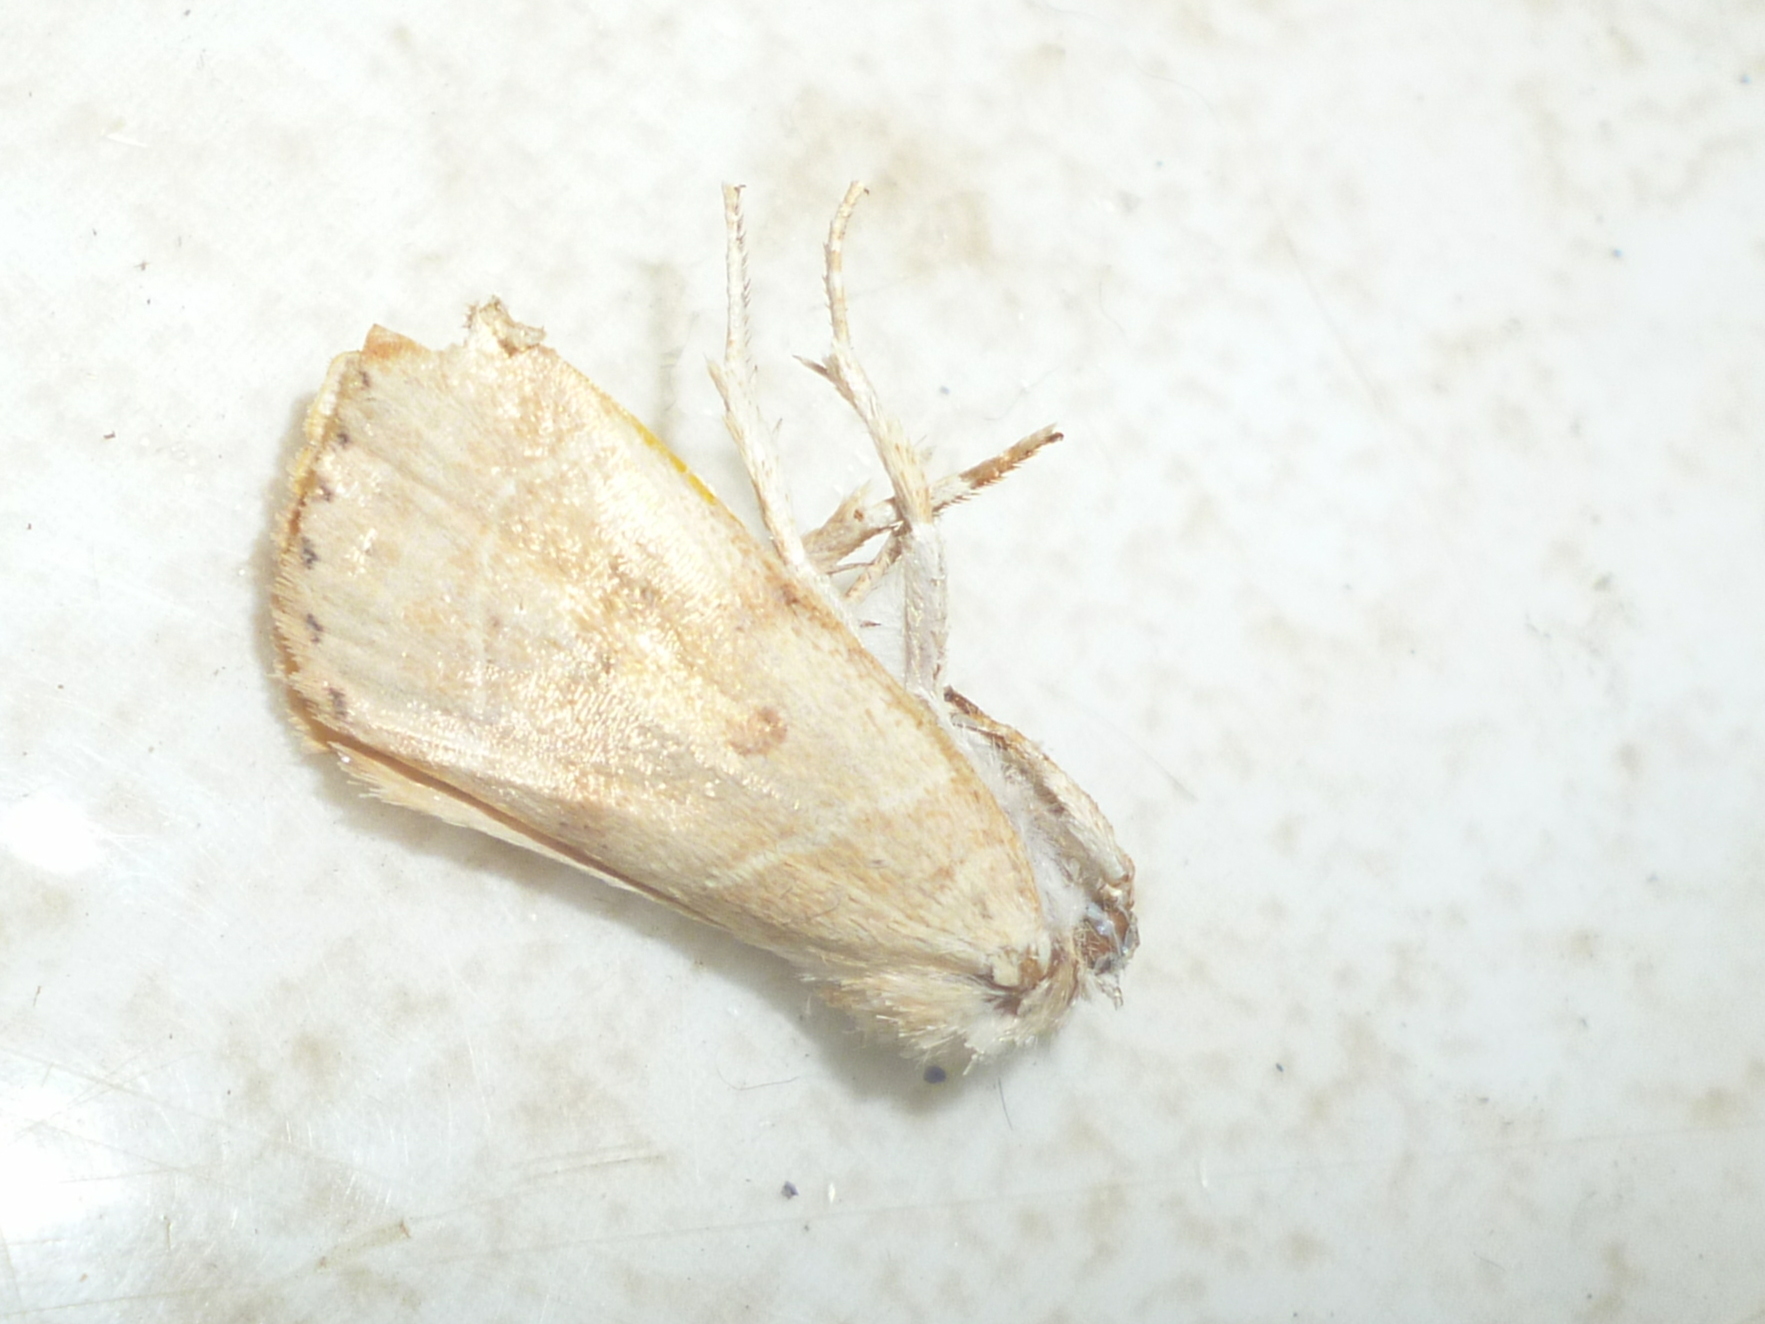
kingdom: Animalia
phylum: Arthropoda
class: Insecta
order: Lepidoptera
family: Noctuidae
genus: Cosmia
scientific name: Cosmia calami
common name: American dun-bar moth
